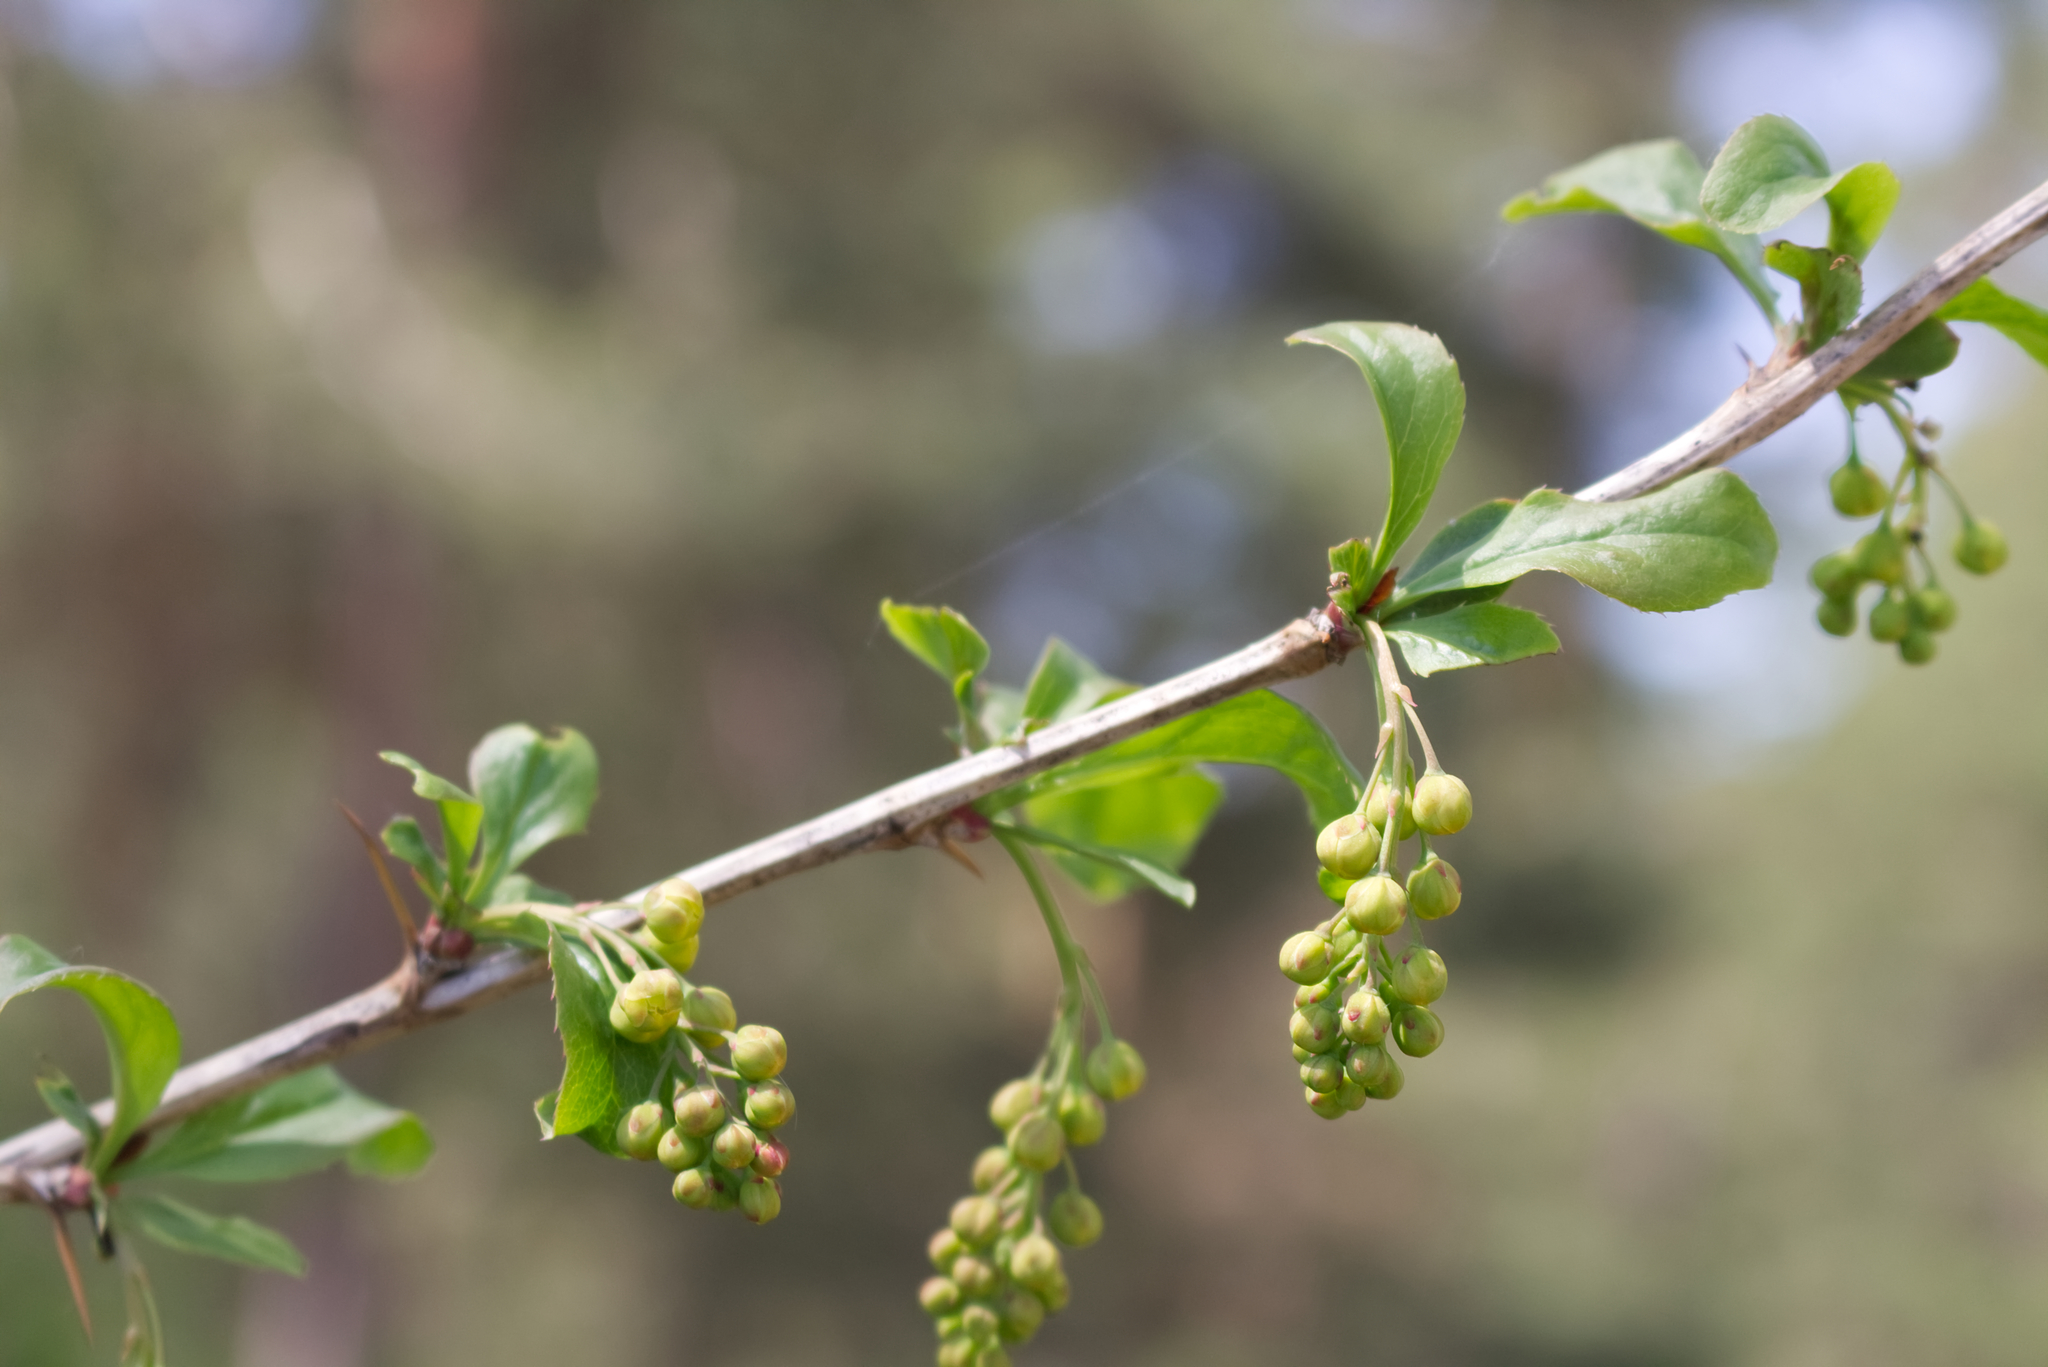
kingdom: Plantae
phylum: Tracheophyta
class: Magnoliopsida
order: Ranunculales
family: Berberidaceae
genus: Berberis
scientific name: Berberis vulgaris
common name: Barberry
